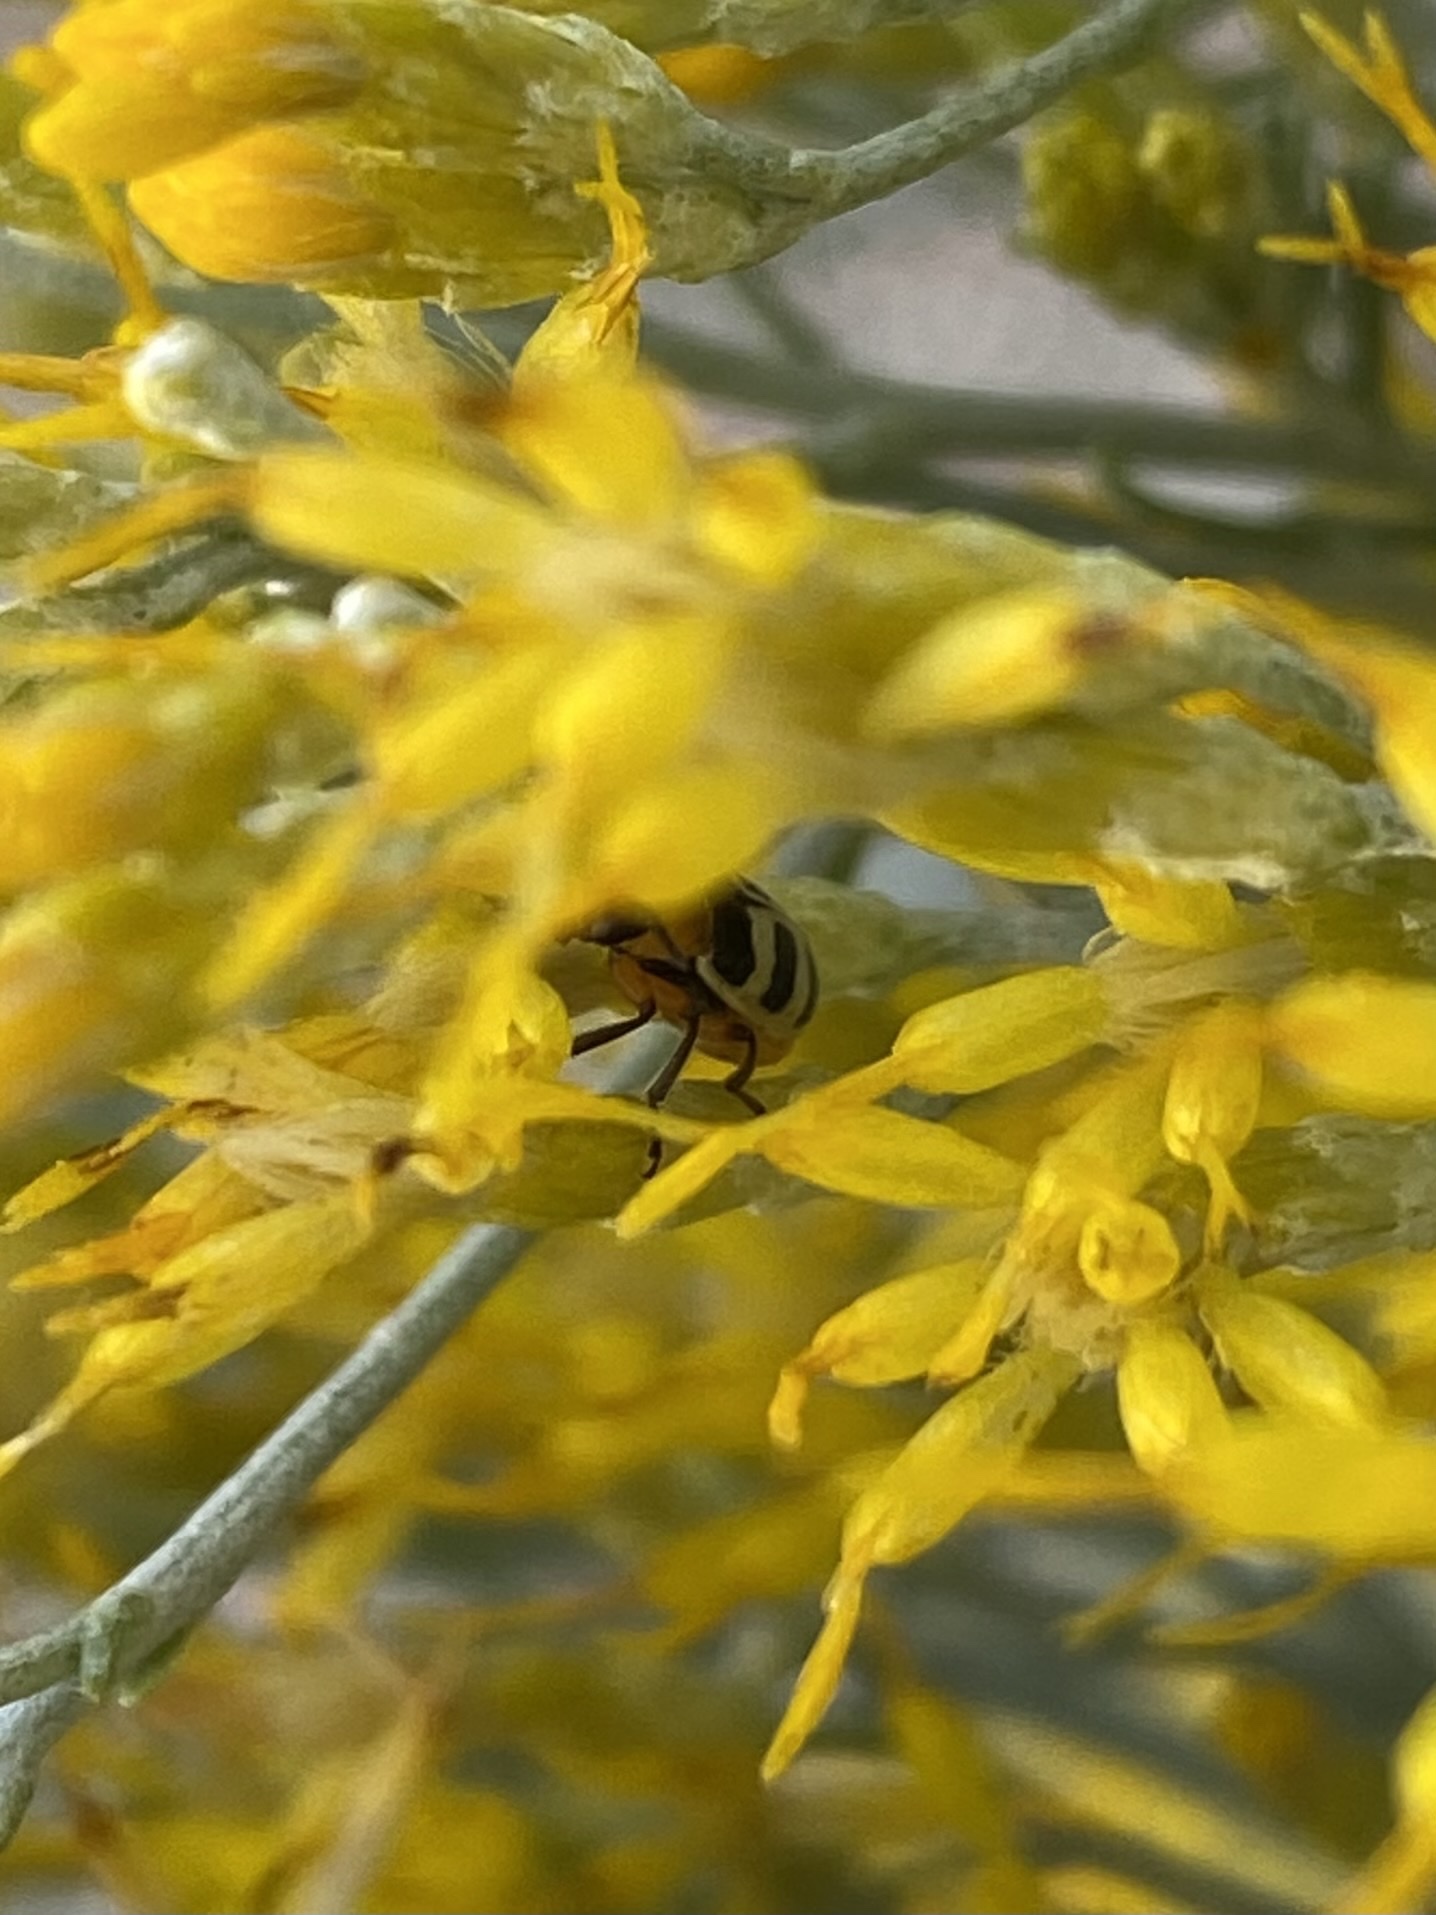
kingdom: Animalia
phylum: Arthropoda
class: Insecta
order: Coleoptera
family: Chrysomelidae
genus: Paranapiacaba
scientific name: Paranapiacaba tricincta
